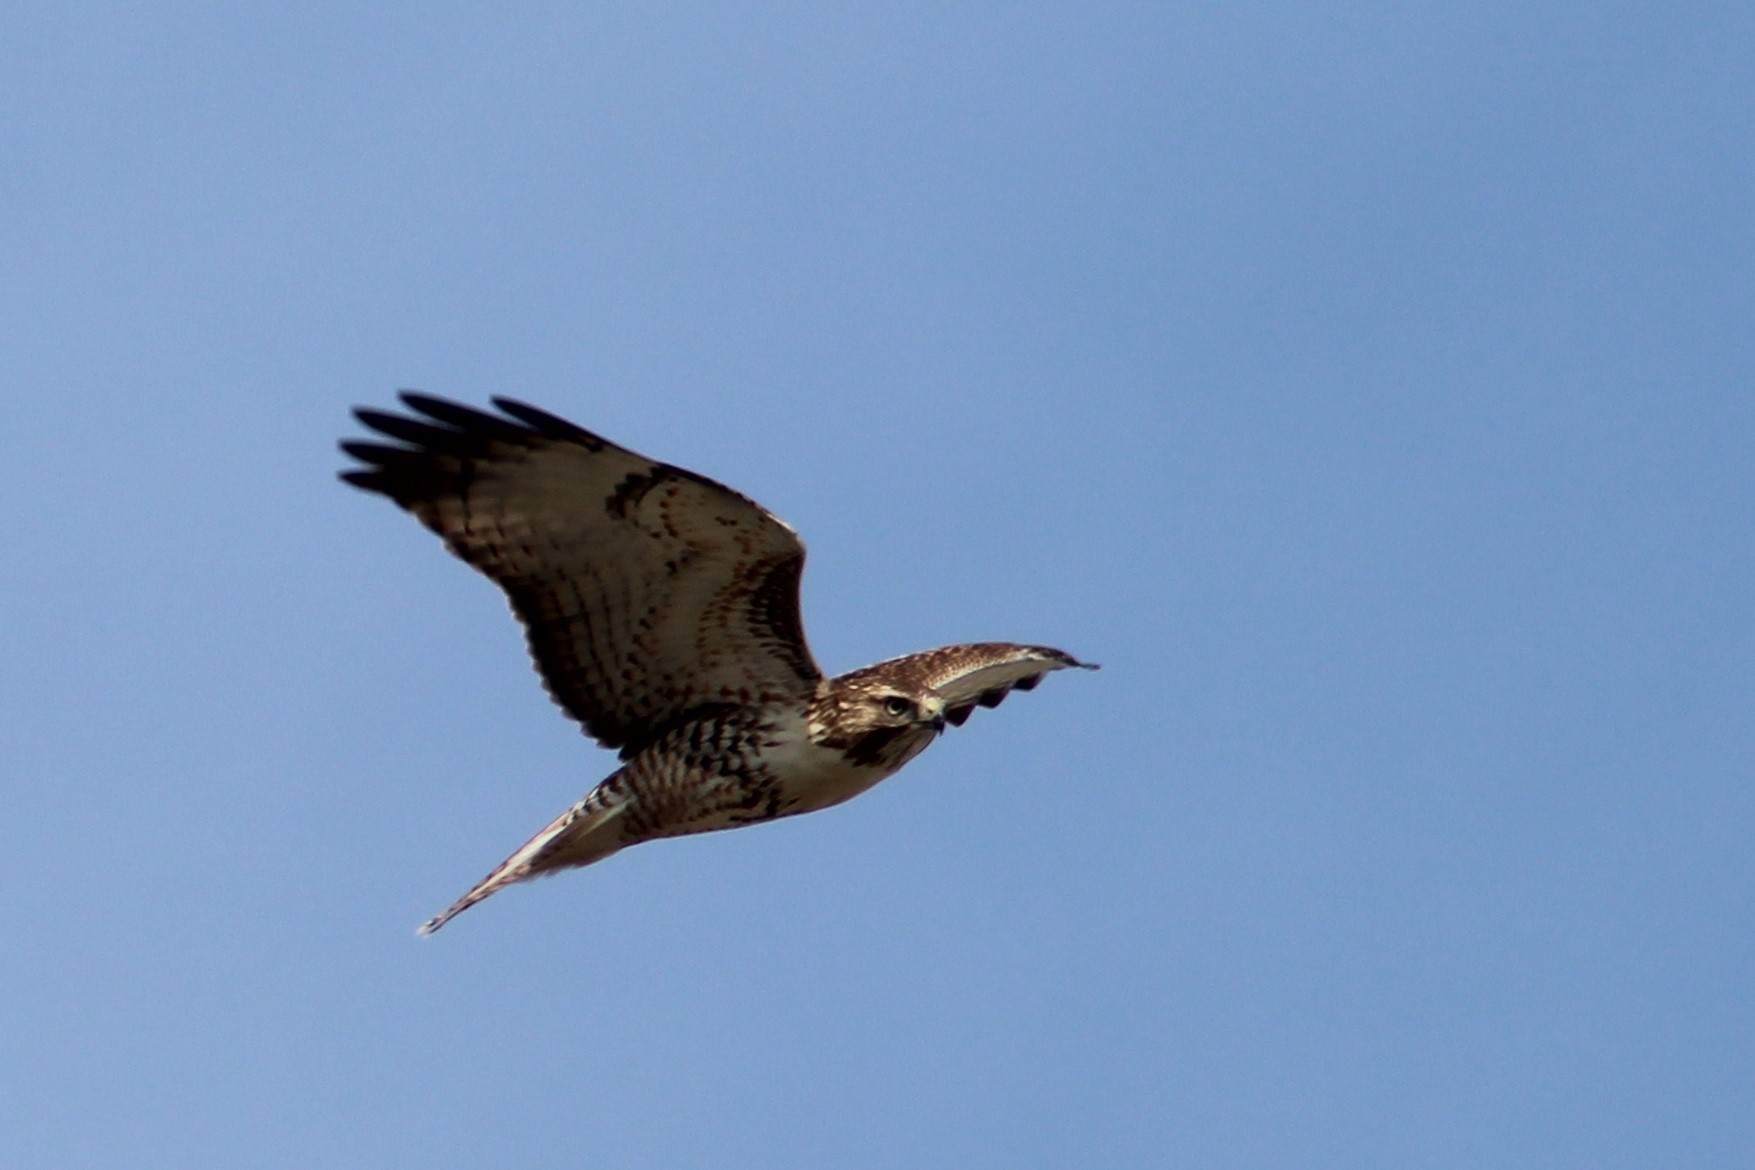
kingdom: Animalia
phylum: Chordata
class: Aves
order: Accipitriformes
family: Accipitridae
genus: Buteo
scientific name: Buteo jamaicensis
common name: Red-tailed hawk
